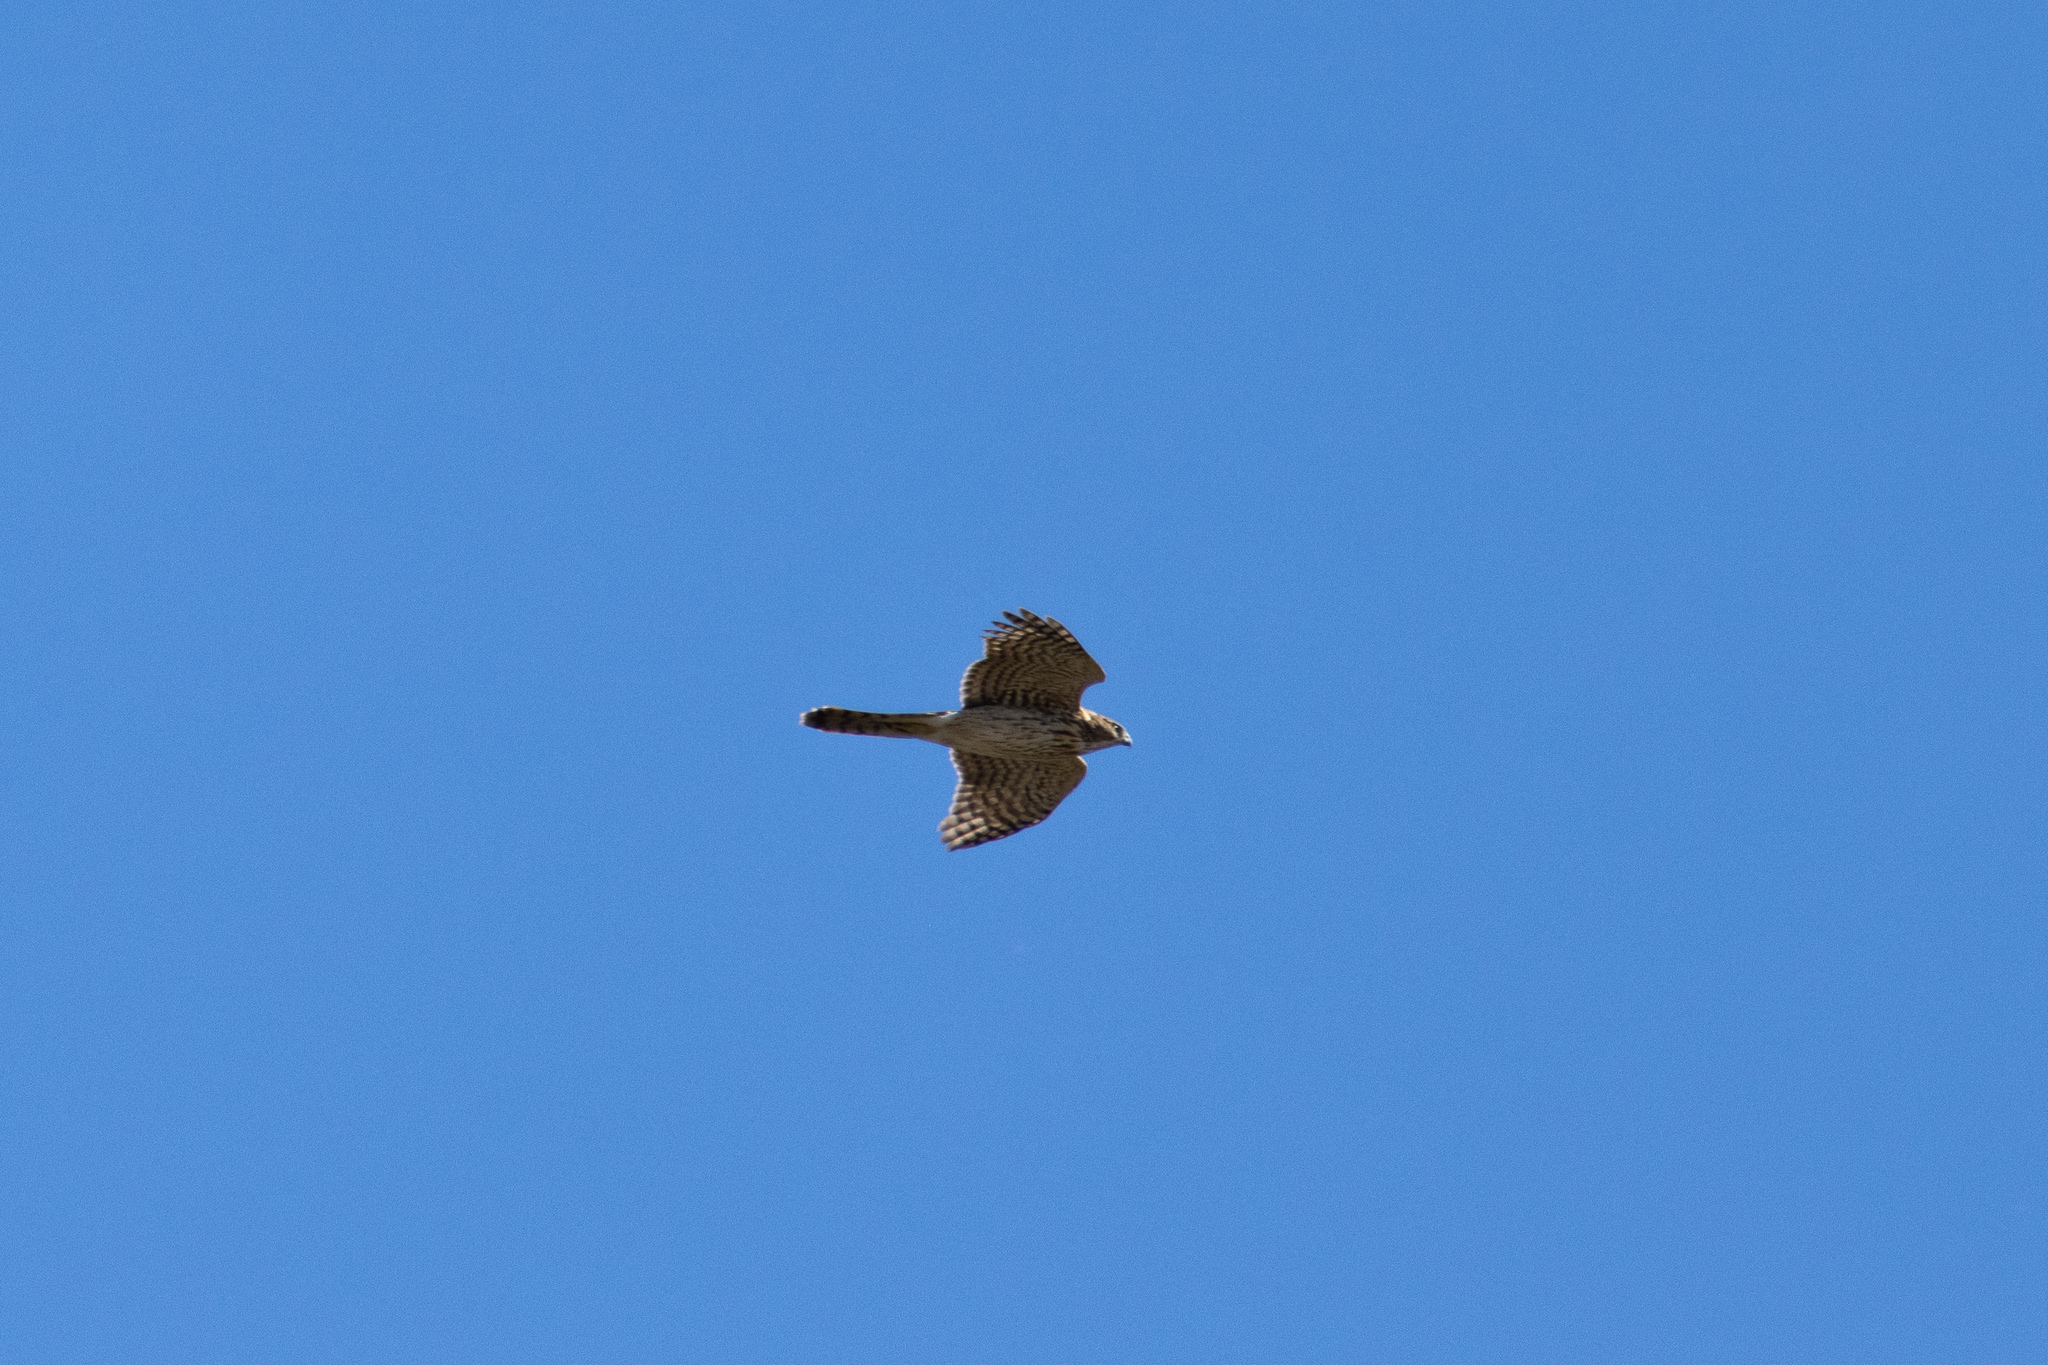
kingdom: Animalia
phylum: Chordata
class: Aves
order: Accipitriformes
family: Accipitridae
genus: Accipiter
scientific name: Accipiter cooperii
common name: Cooper's hawk
